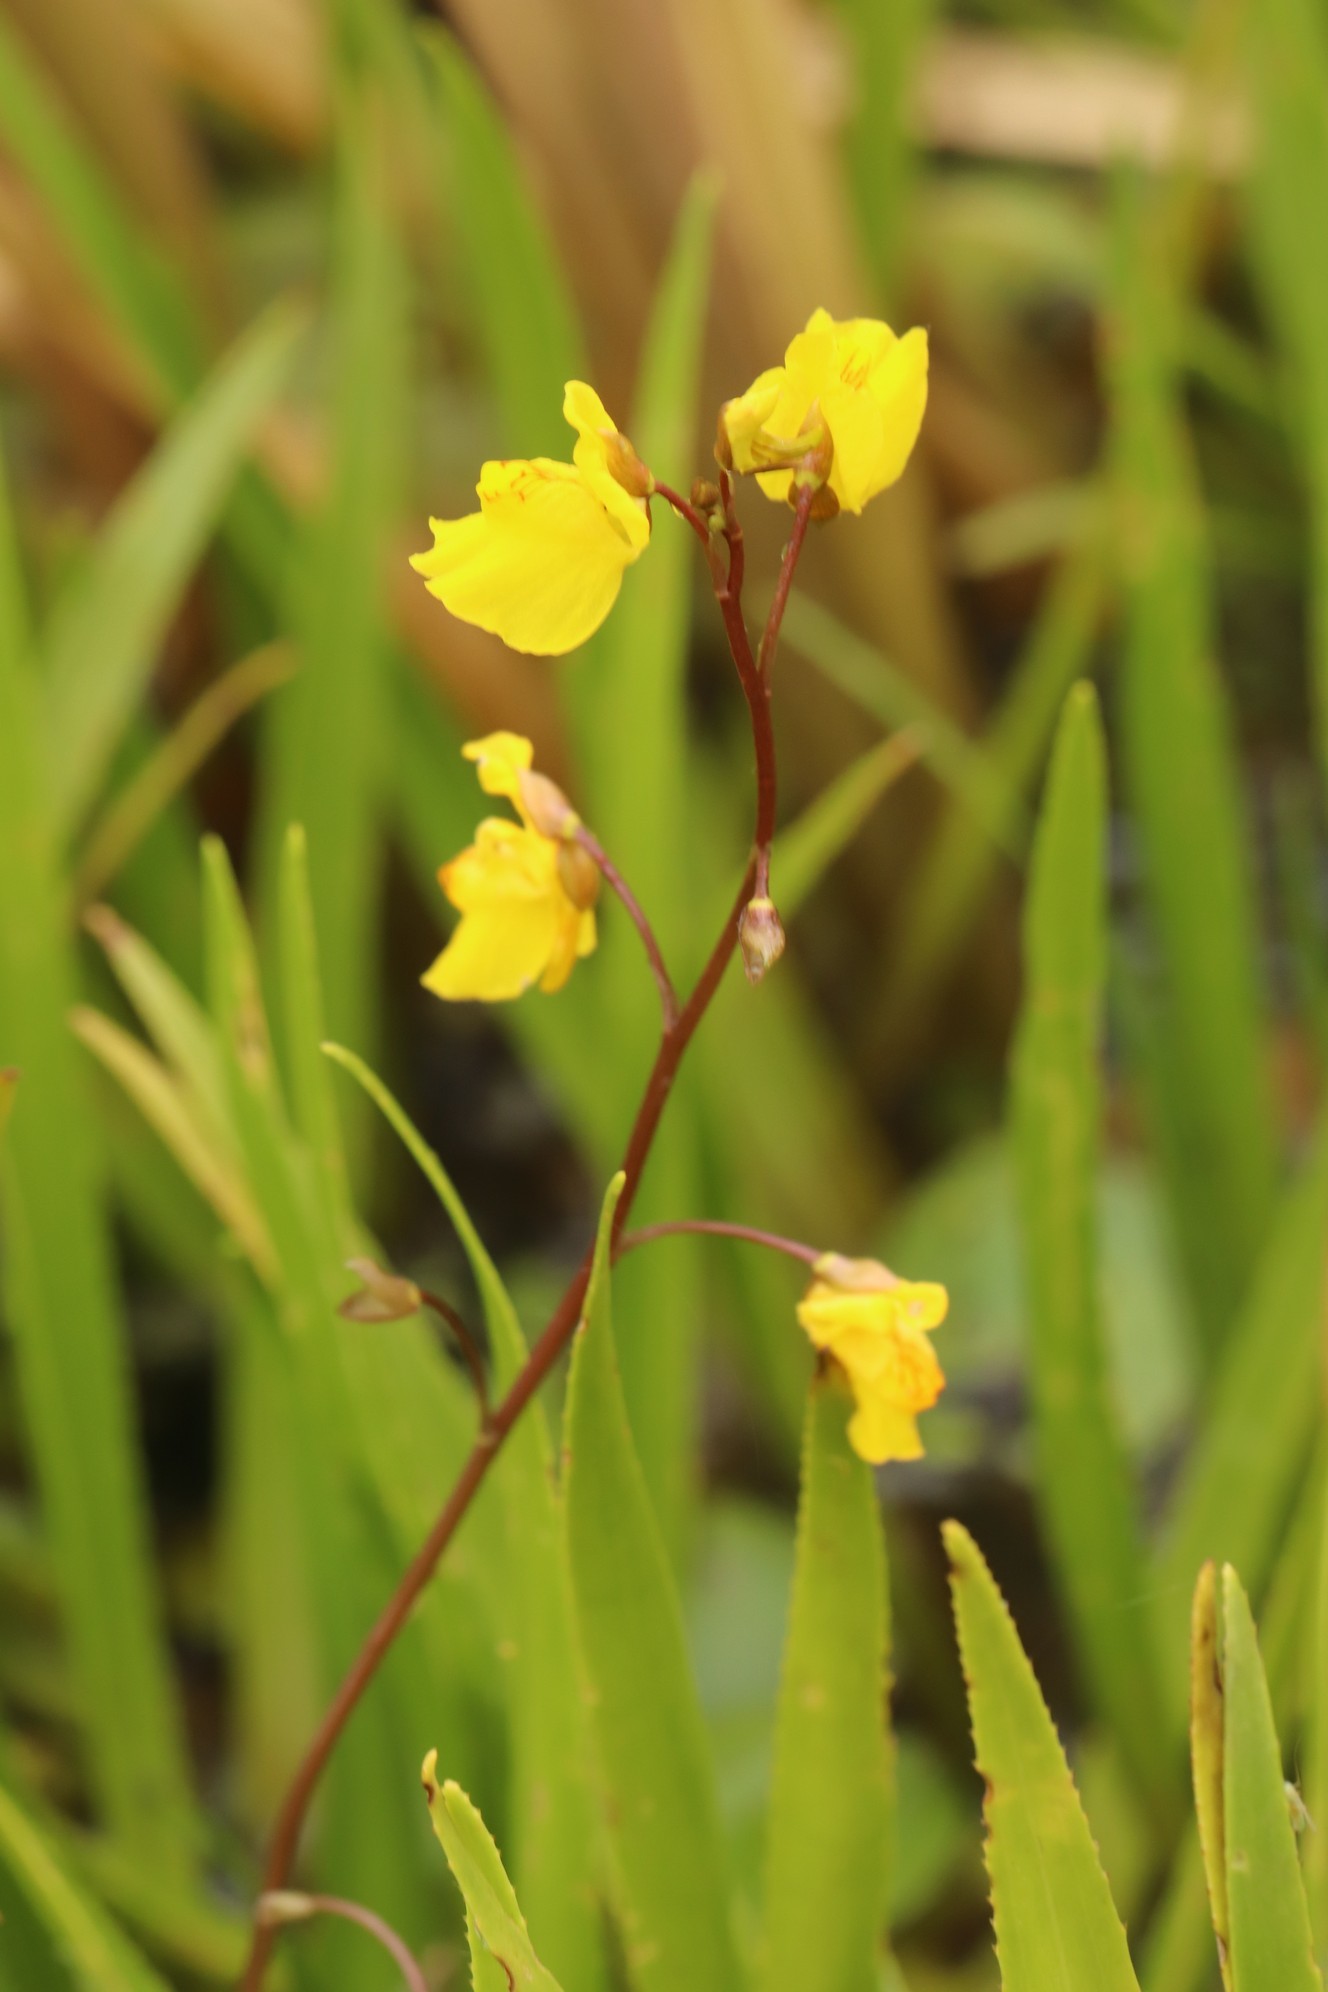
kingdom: Plantae
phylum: Tracheophyta
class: Magnoliopsida
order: Lamiales
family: Lentibulariaceae
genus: Utricularia
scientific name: Utricularia vulgaris
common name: Greater bladderwort
